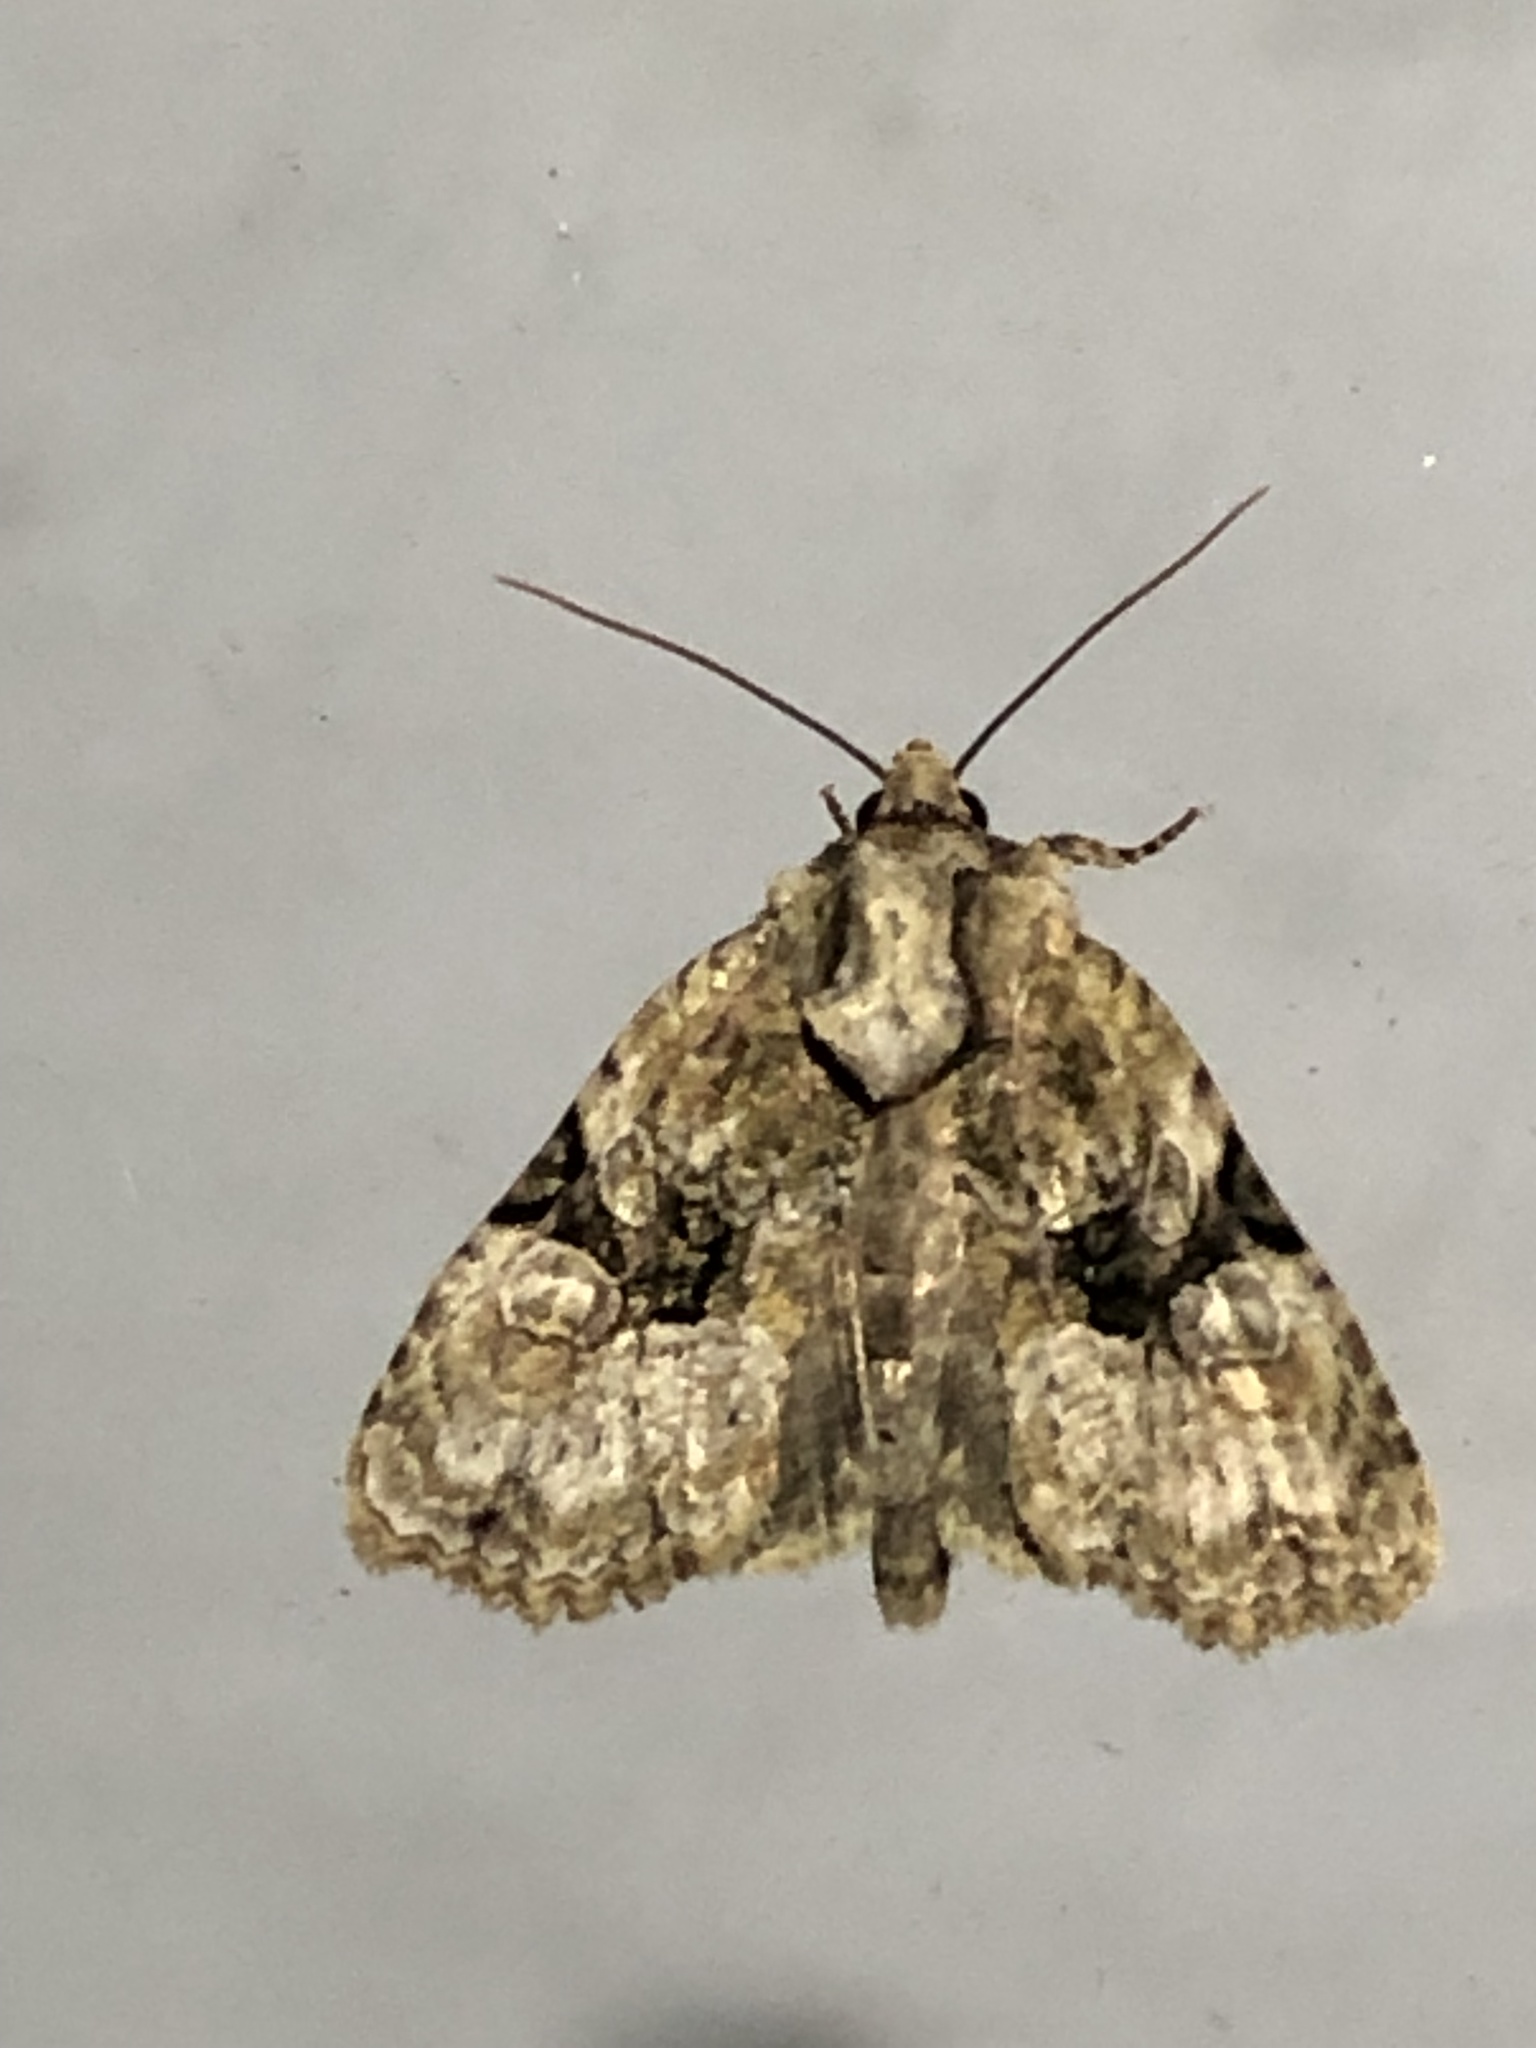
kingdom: Animalia
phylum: Arthropoda
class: Insecta
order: Lepidoptera
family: Noctuidae
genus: Oligia
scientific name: Oligia modica
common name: Black-banded brocade
